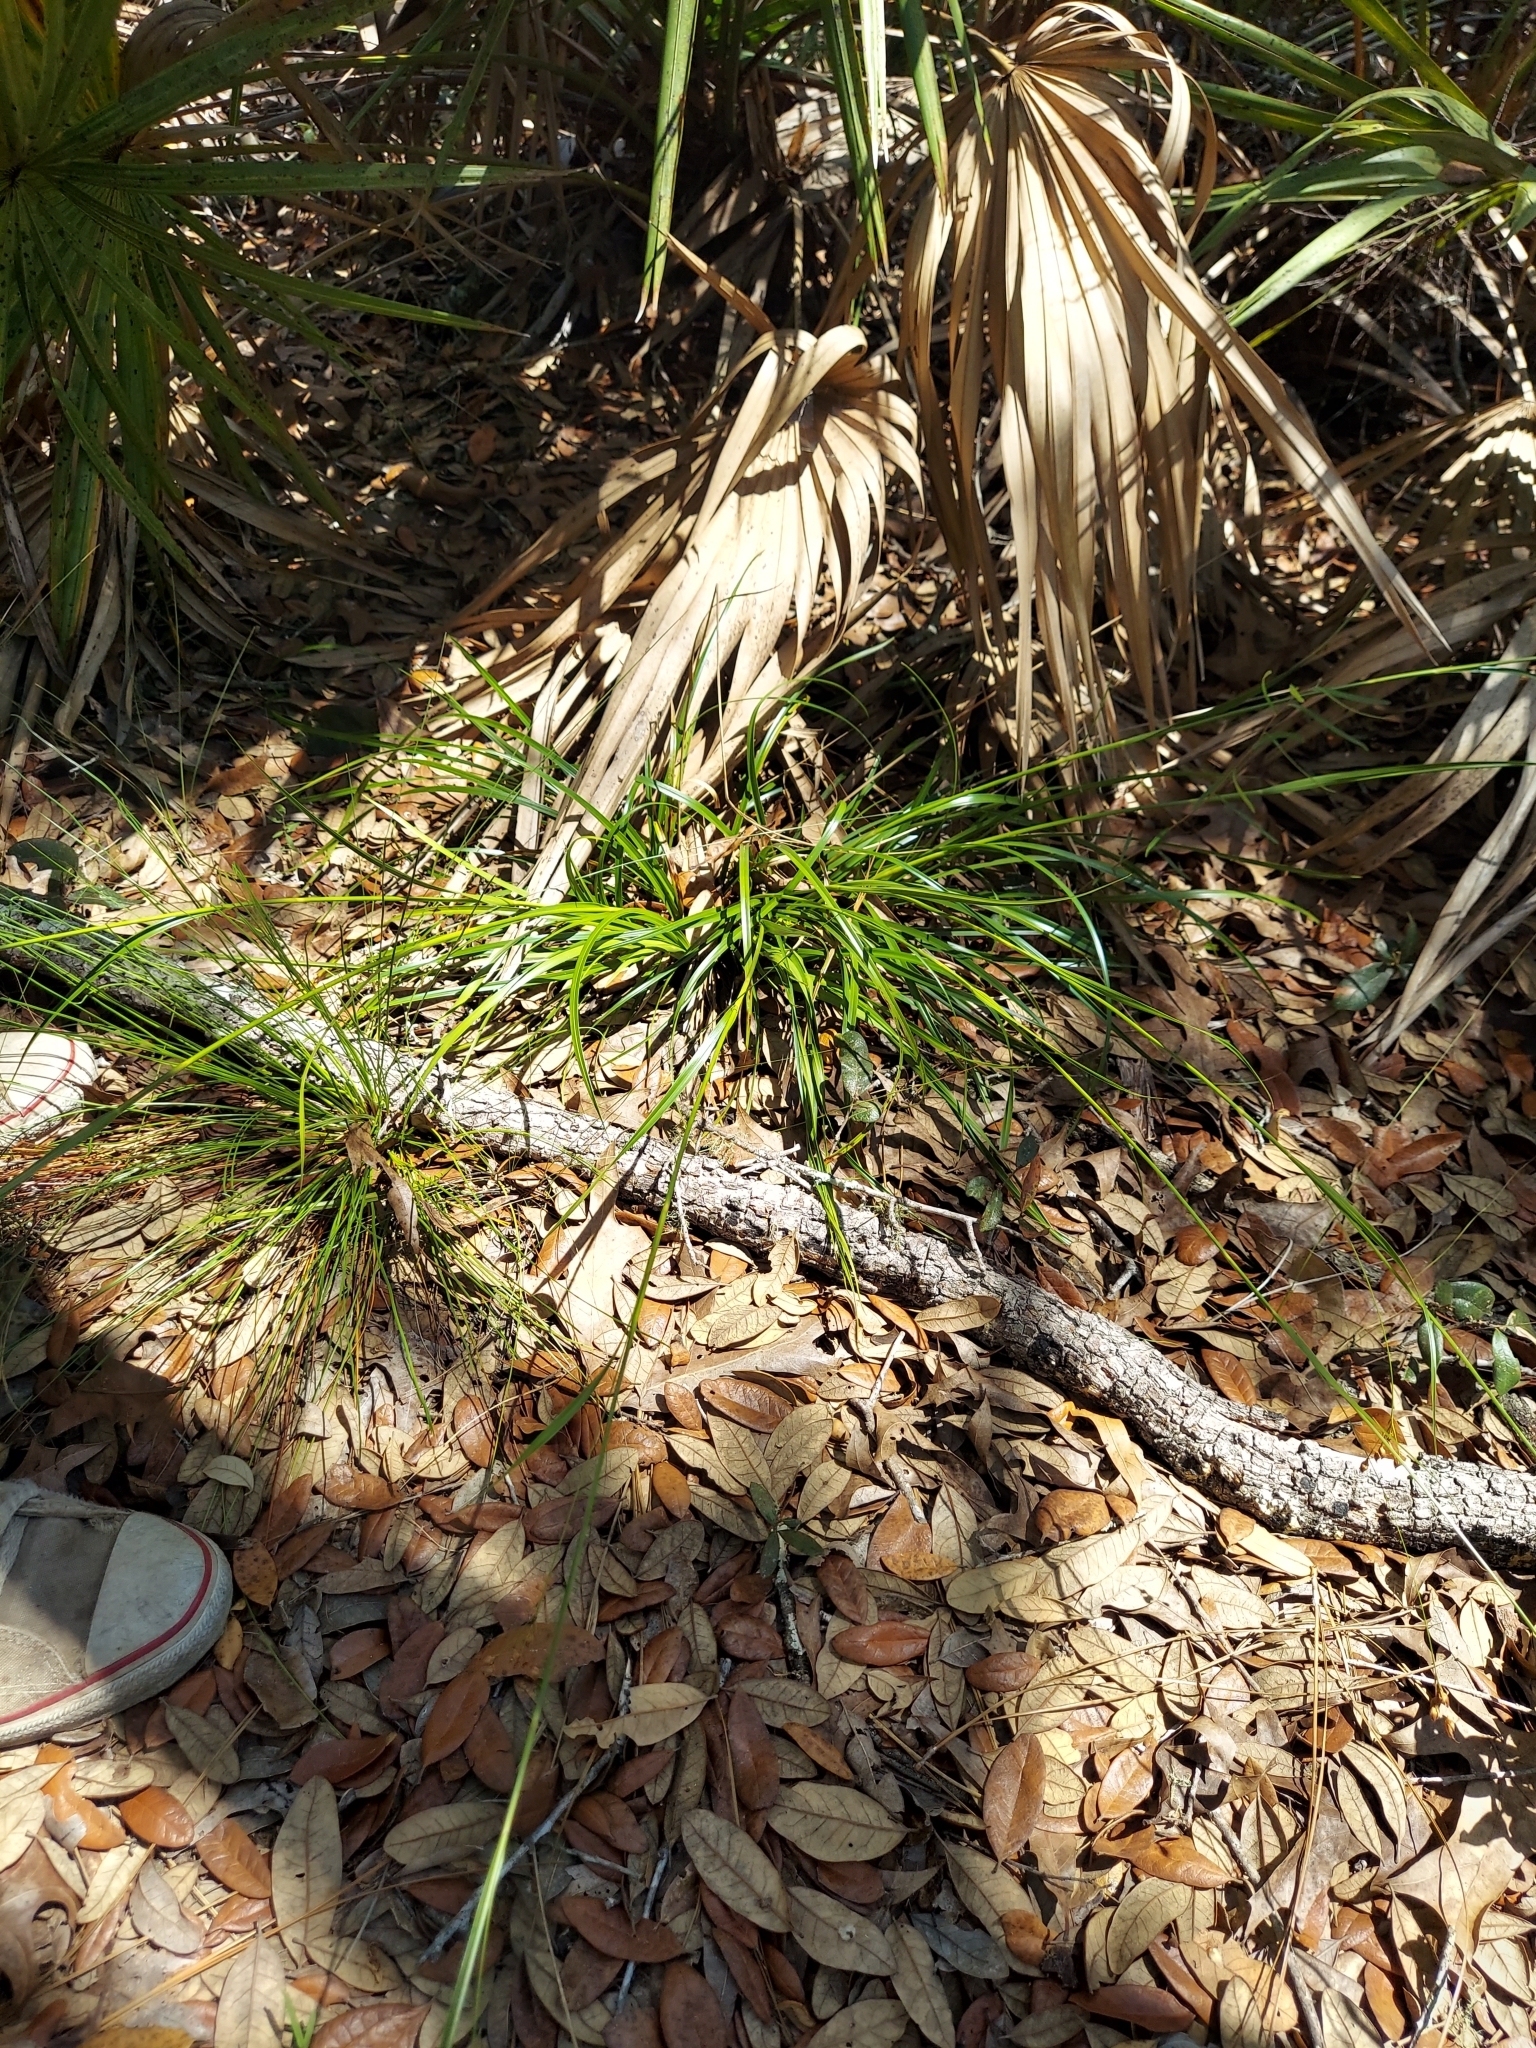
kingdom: Plantae
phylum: Tracheophyta
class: Liliopsida
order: Poales
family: Cyperaceae
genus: Rhynchospora
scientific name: Rhynchospora megalocarpa
